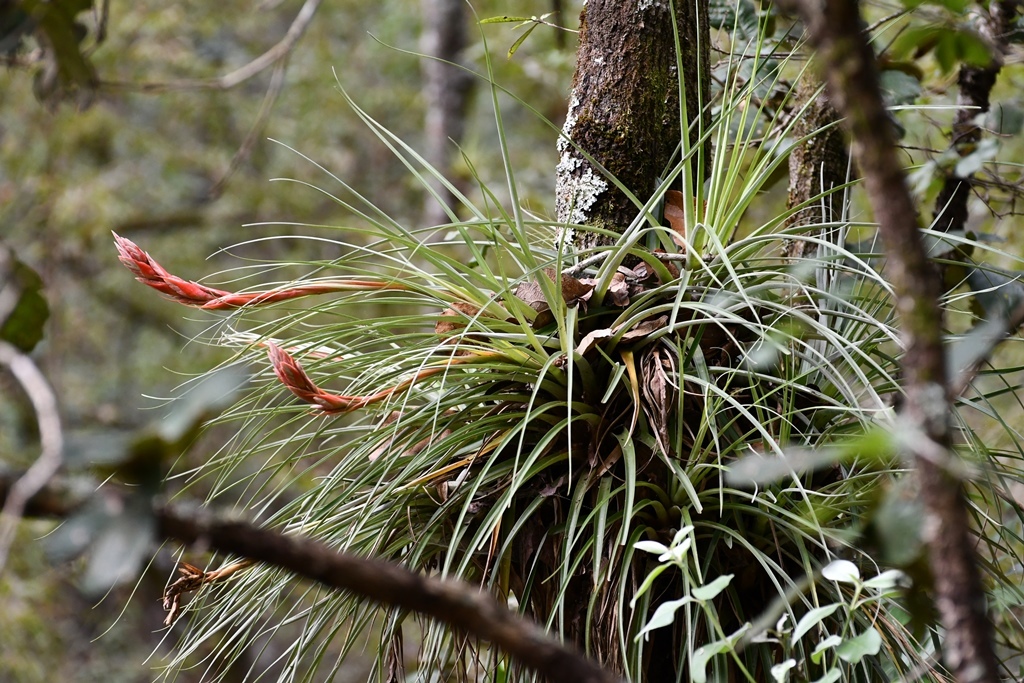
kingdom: Plantae
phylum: Tracheophyta
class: Liliopsida
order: Poales
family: Bromeliaceae
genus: Tillandsia
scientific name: Tillandsia vicentina
